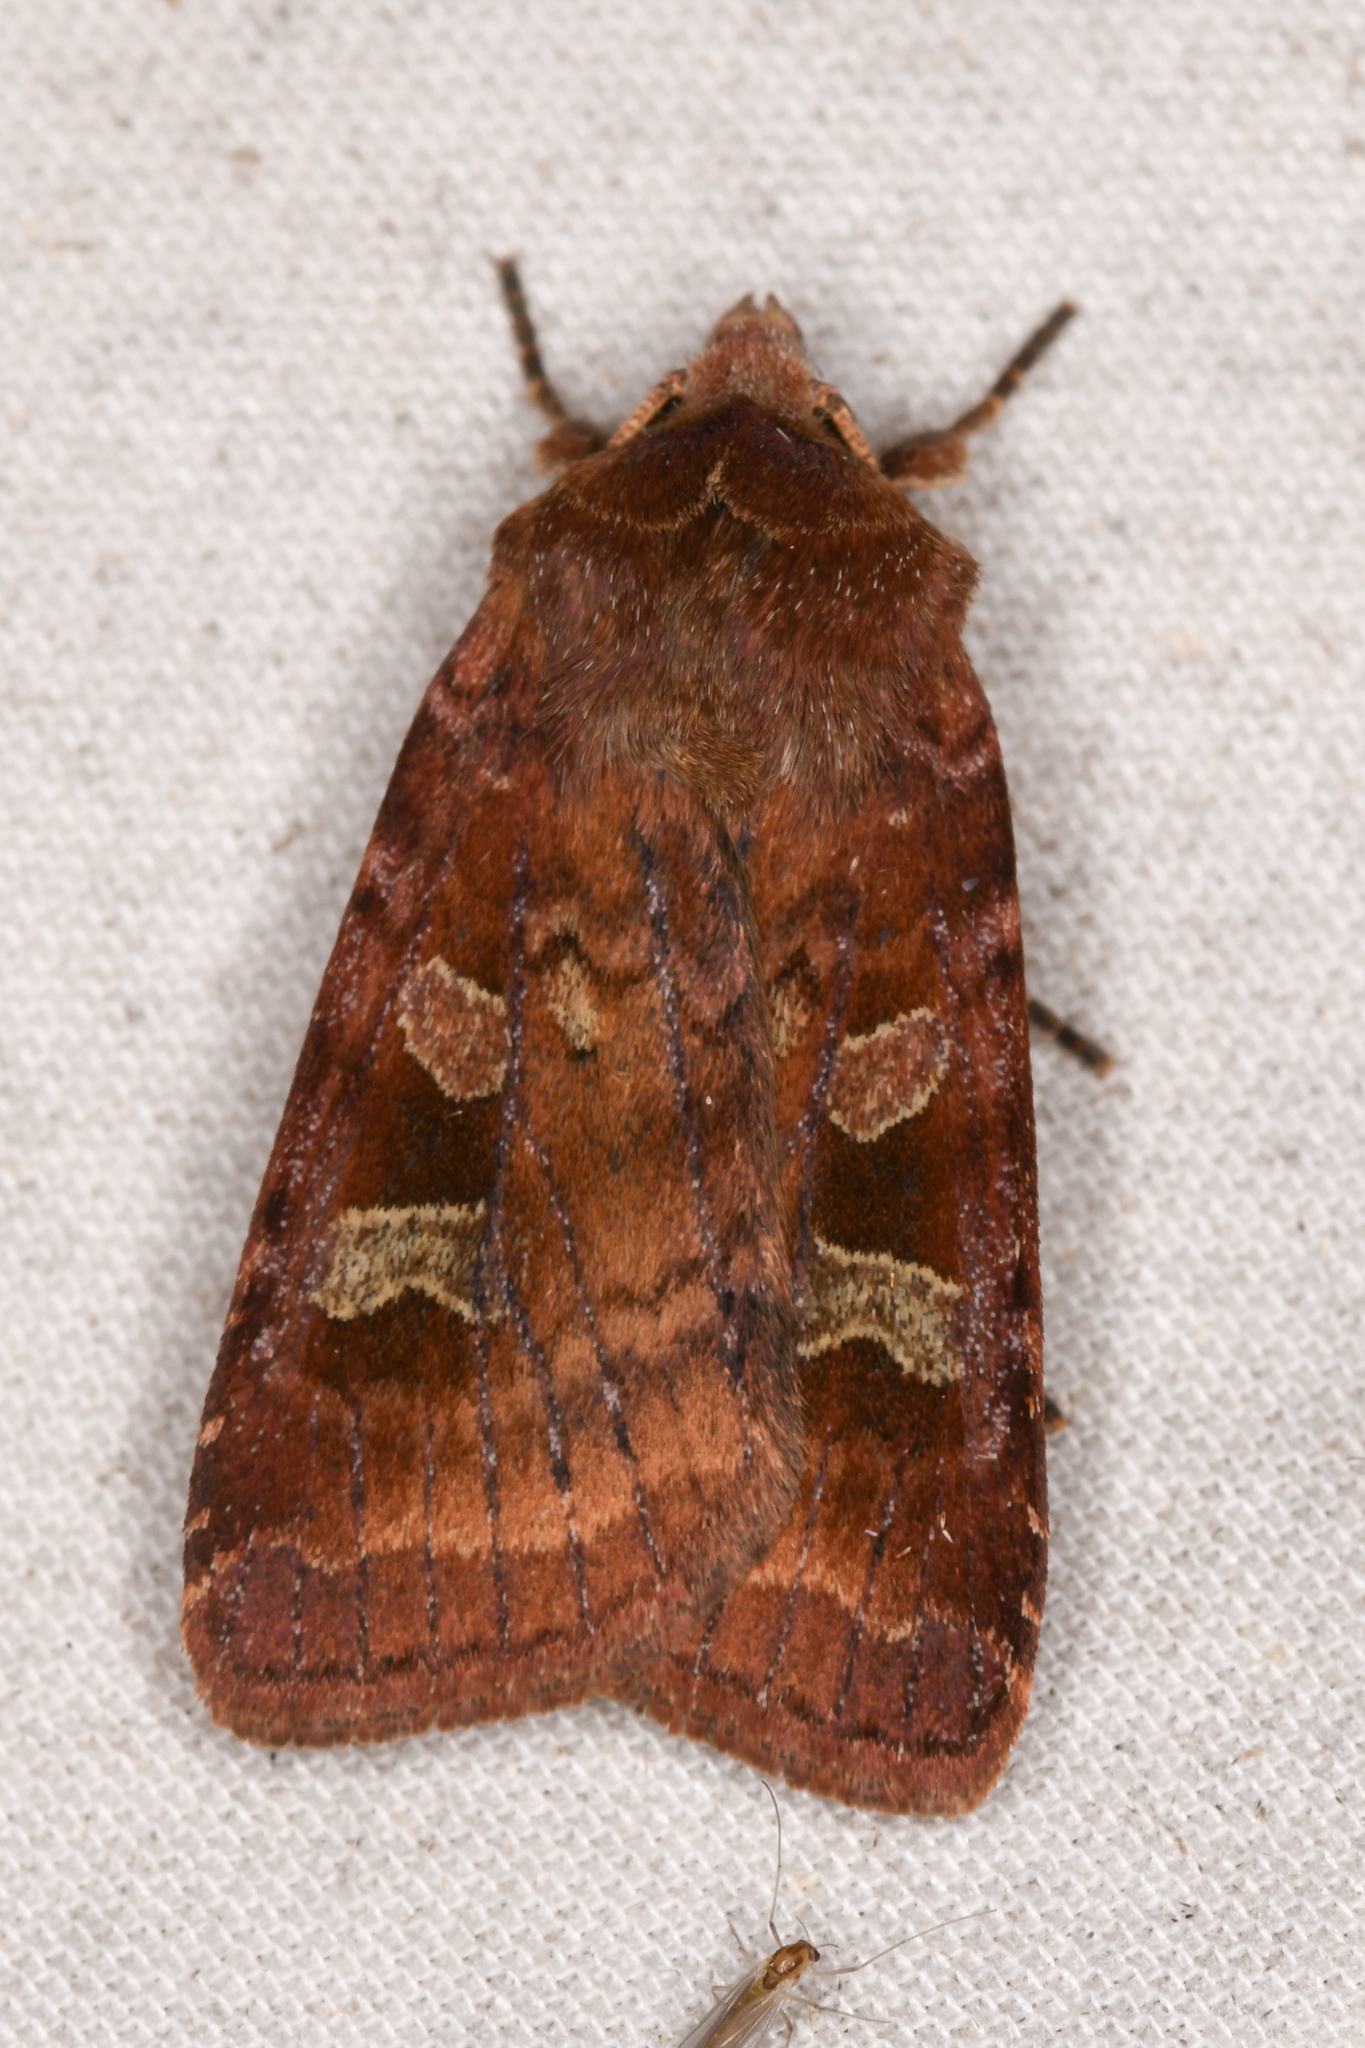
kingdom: Animalia
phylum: Arthropoda
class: Insecta
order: Lepidoptera
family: Noctuidae
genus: Diarsia
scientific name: Diarsia rosaria
